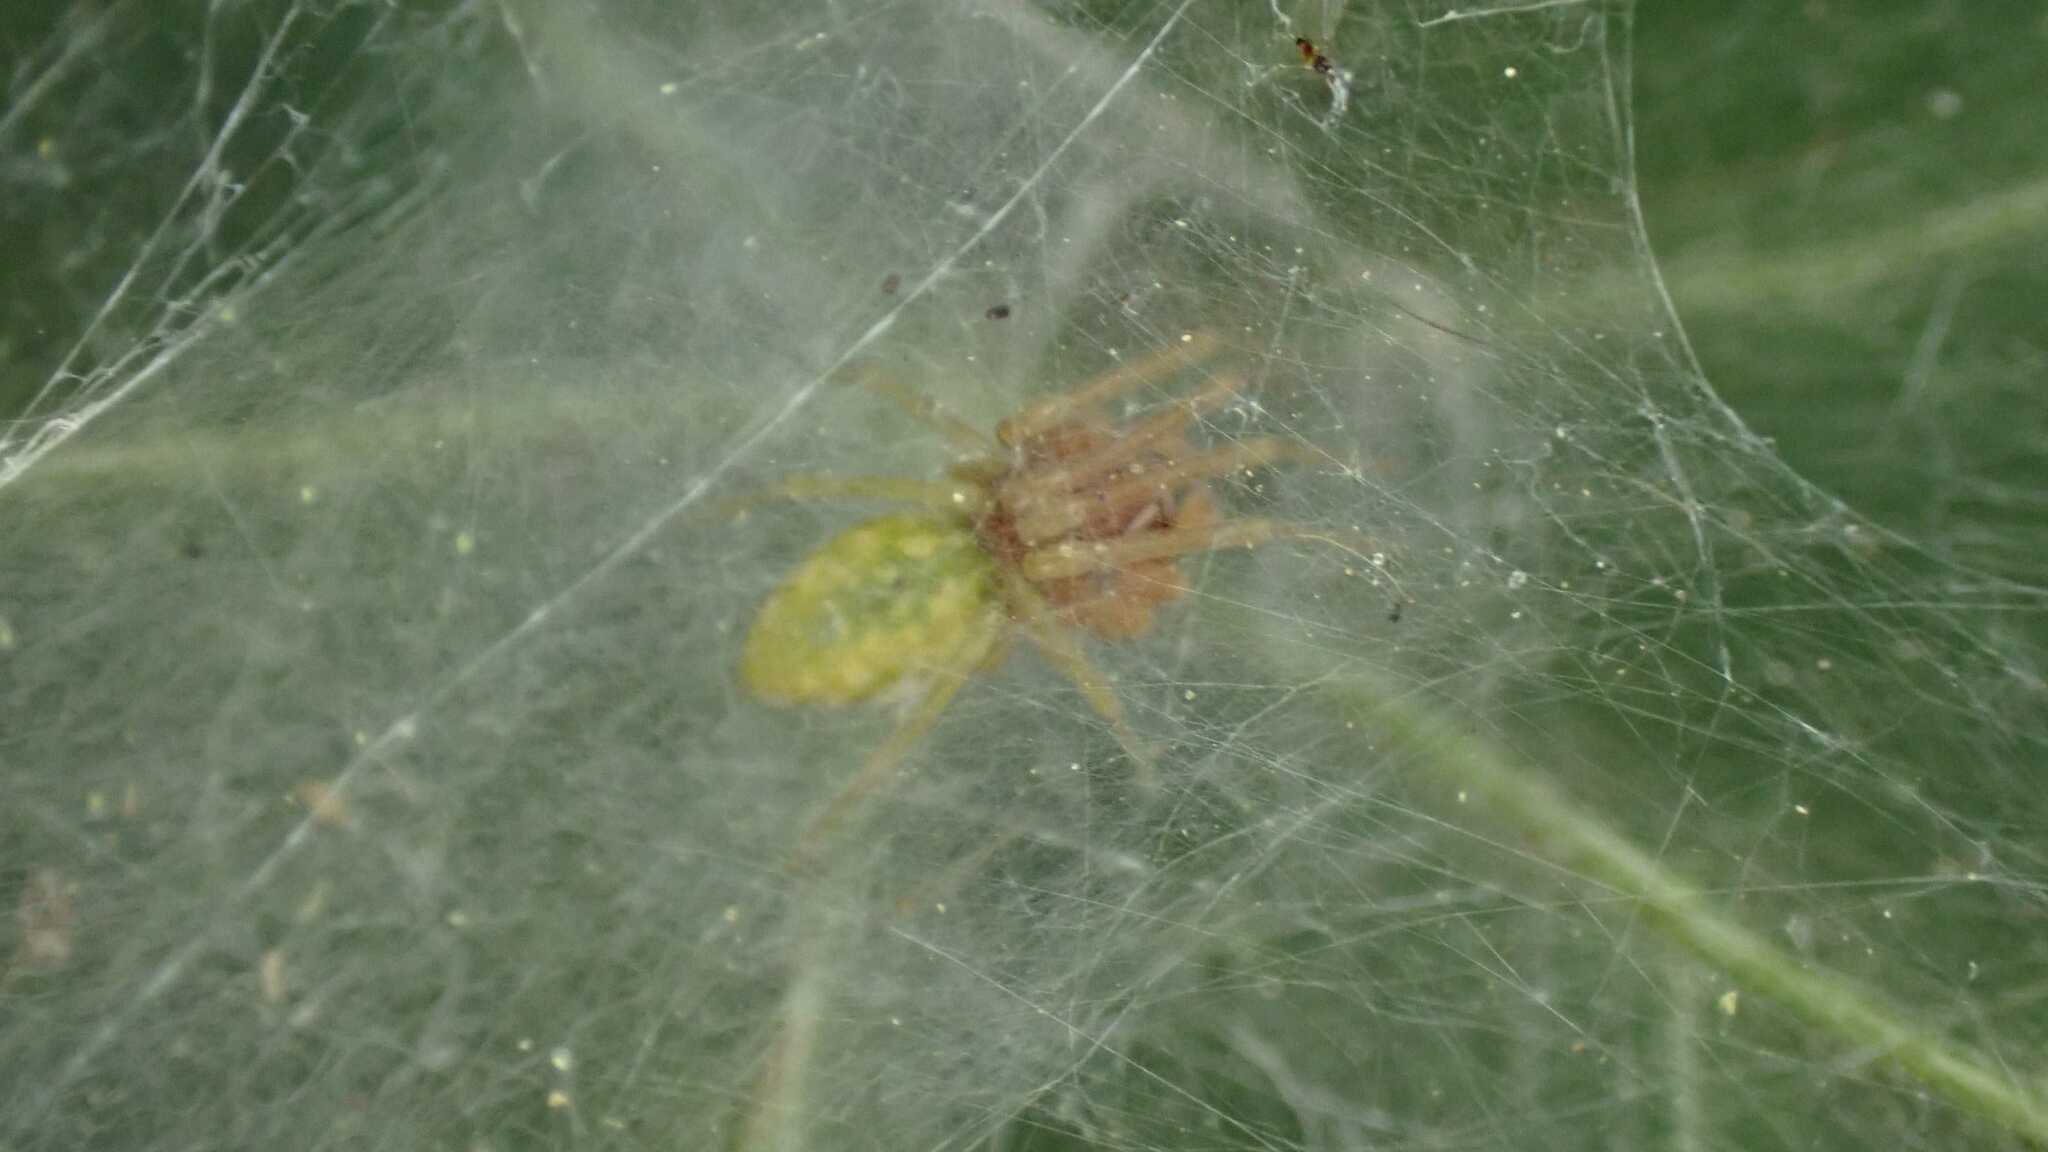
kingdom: Animalia
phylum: Arthropoda
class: Arachnida
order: Araneae
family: Dictynidae
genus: Nigma
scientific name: Nigma walckenaeri
